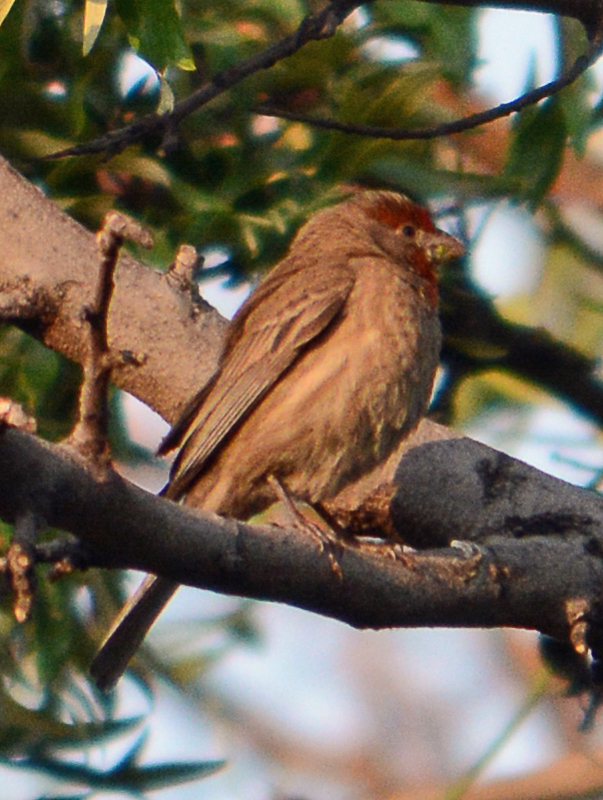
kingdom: Animalia
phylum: Chordata
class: Aves
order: Passeriformes
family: Fringillidae
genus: Haemorhous
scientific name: Haemorhous mexicanus
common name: House finch
